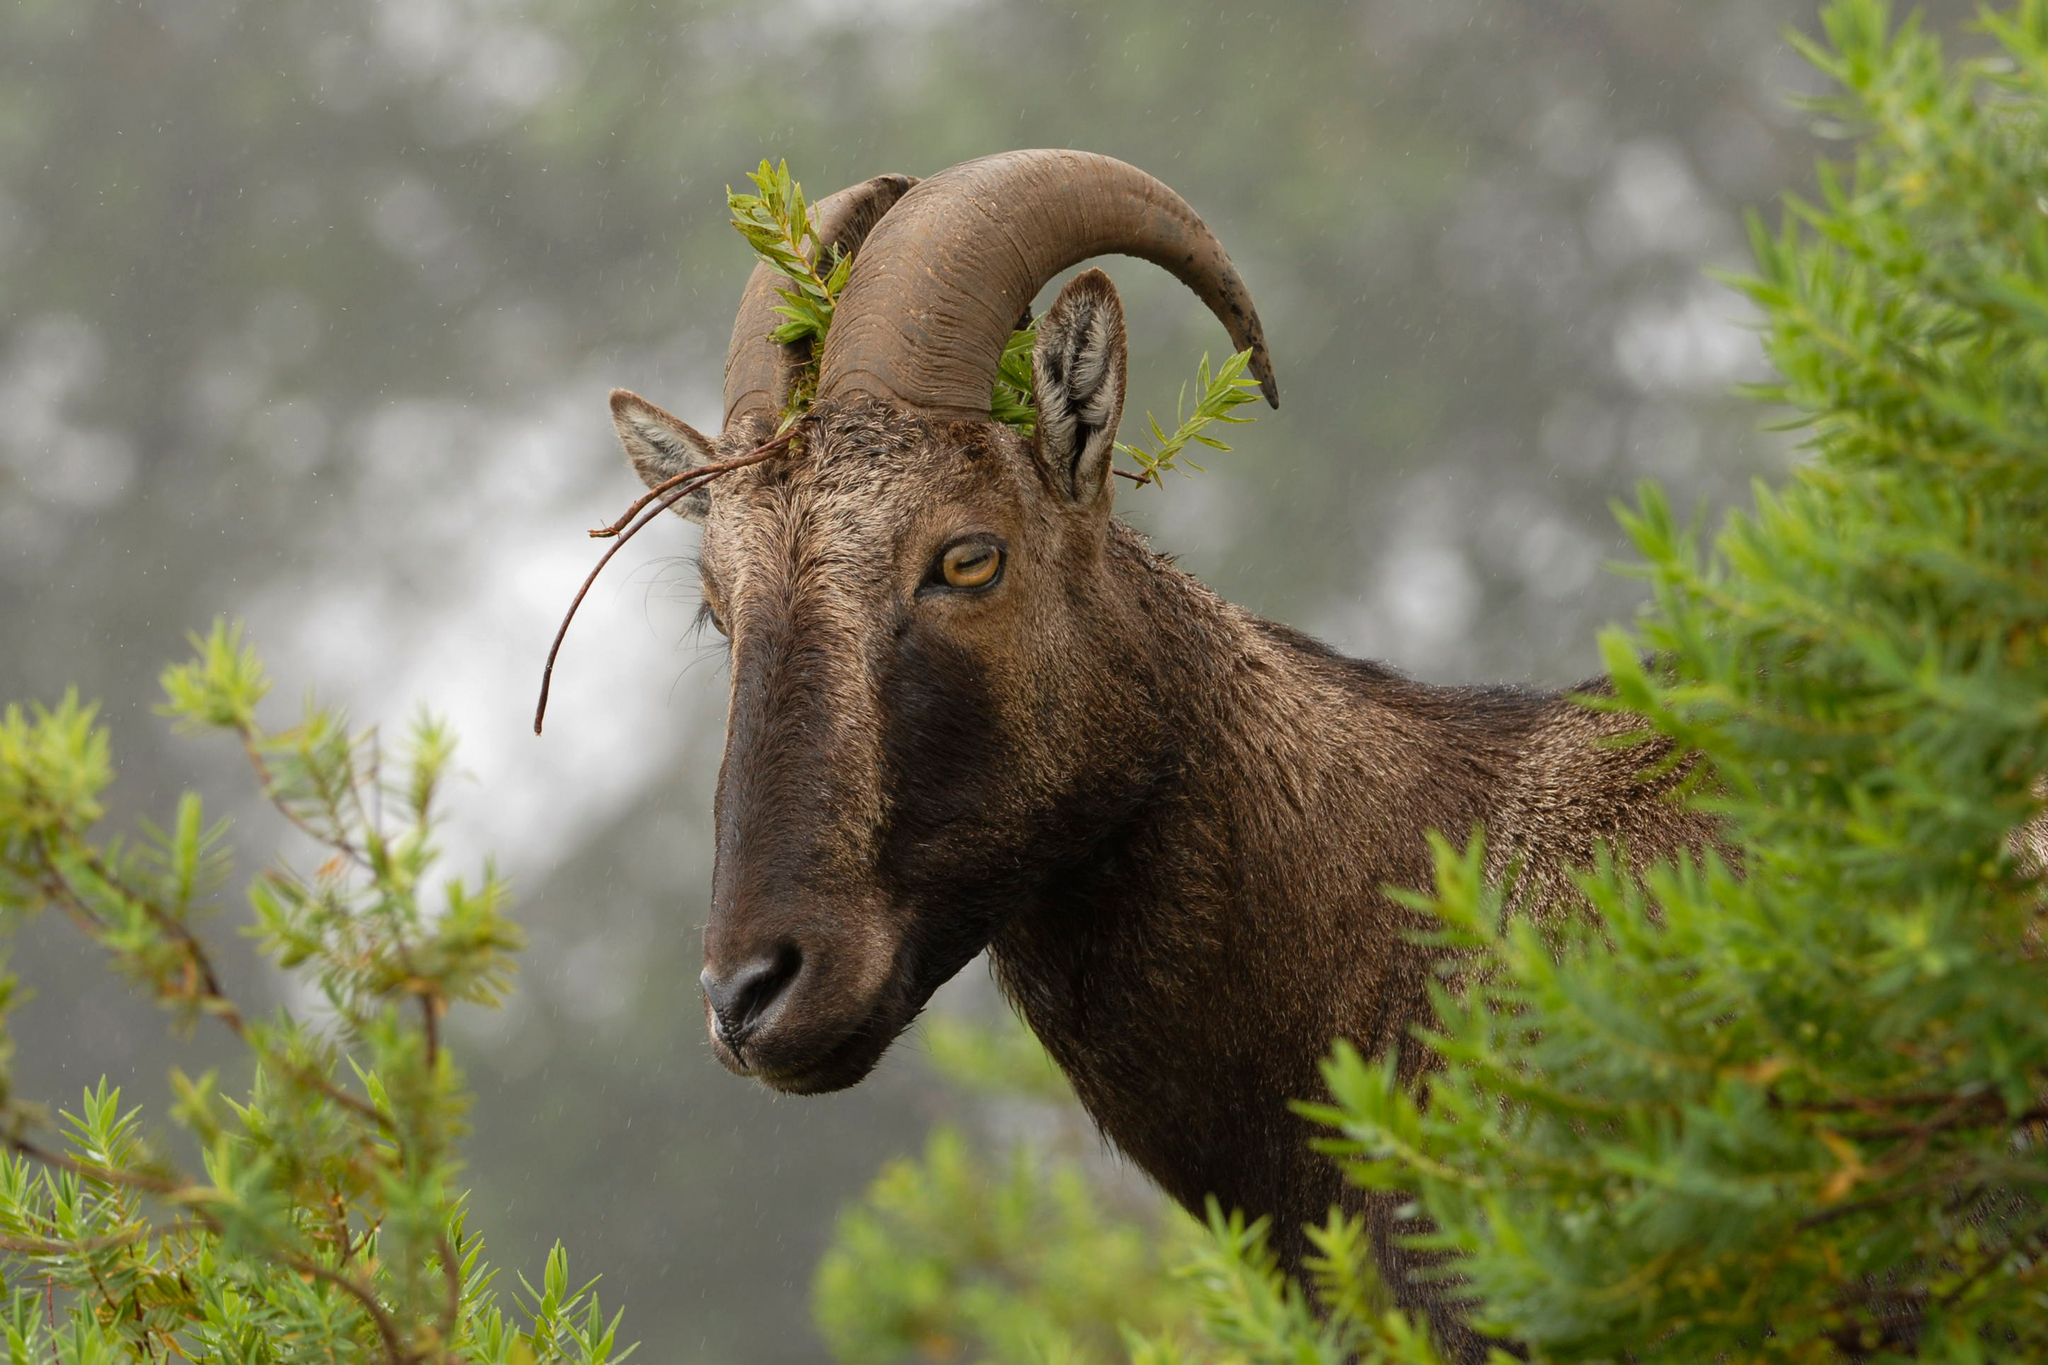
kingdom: Animalia
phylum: Chordata
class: Mammalia
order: Artiodactyla
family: Bovidae
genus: Hemitragus
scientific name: Hemitragus hylocrius
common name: Nilgiri tahr
